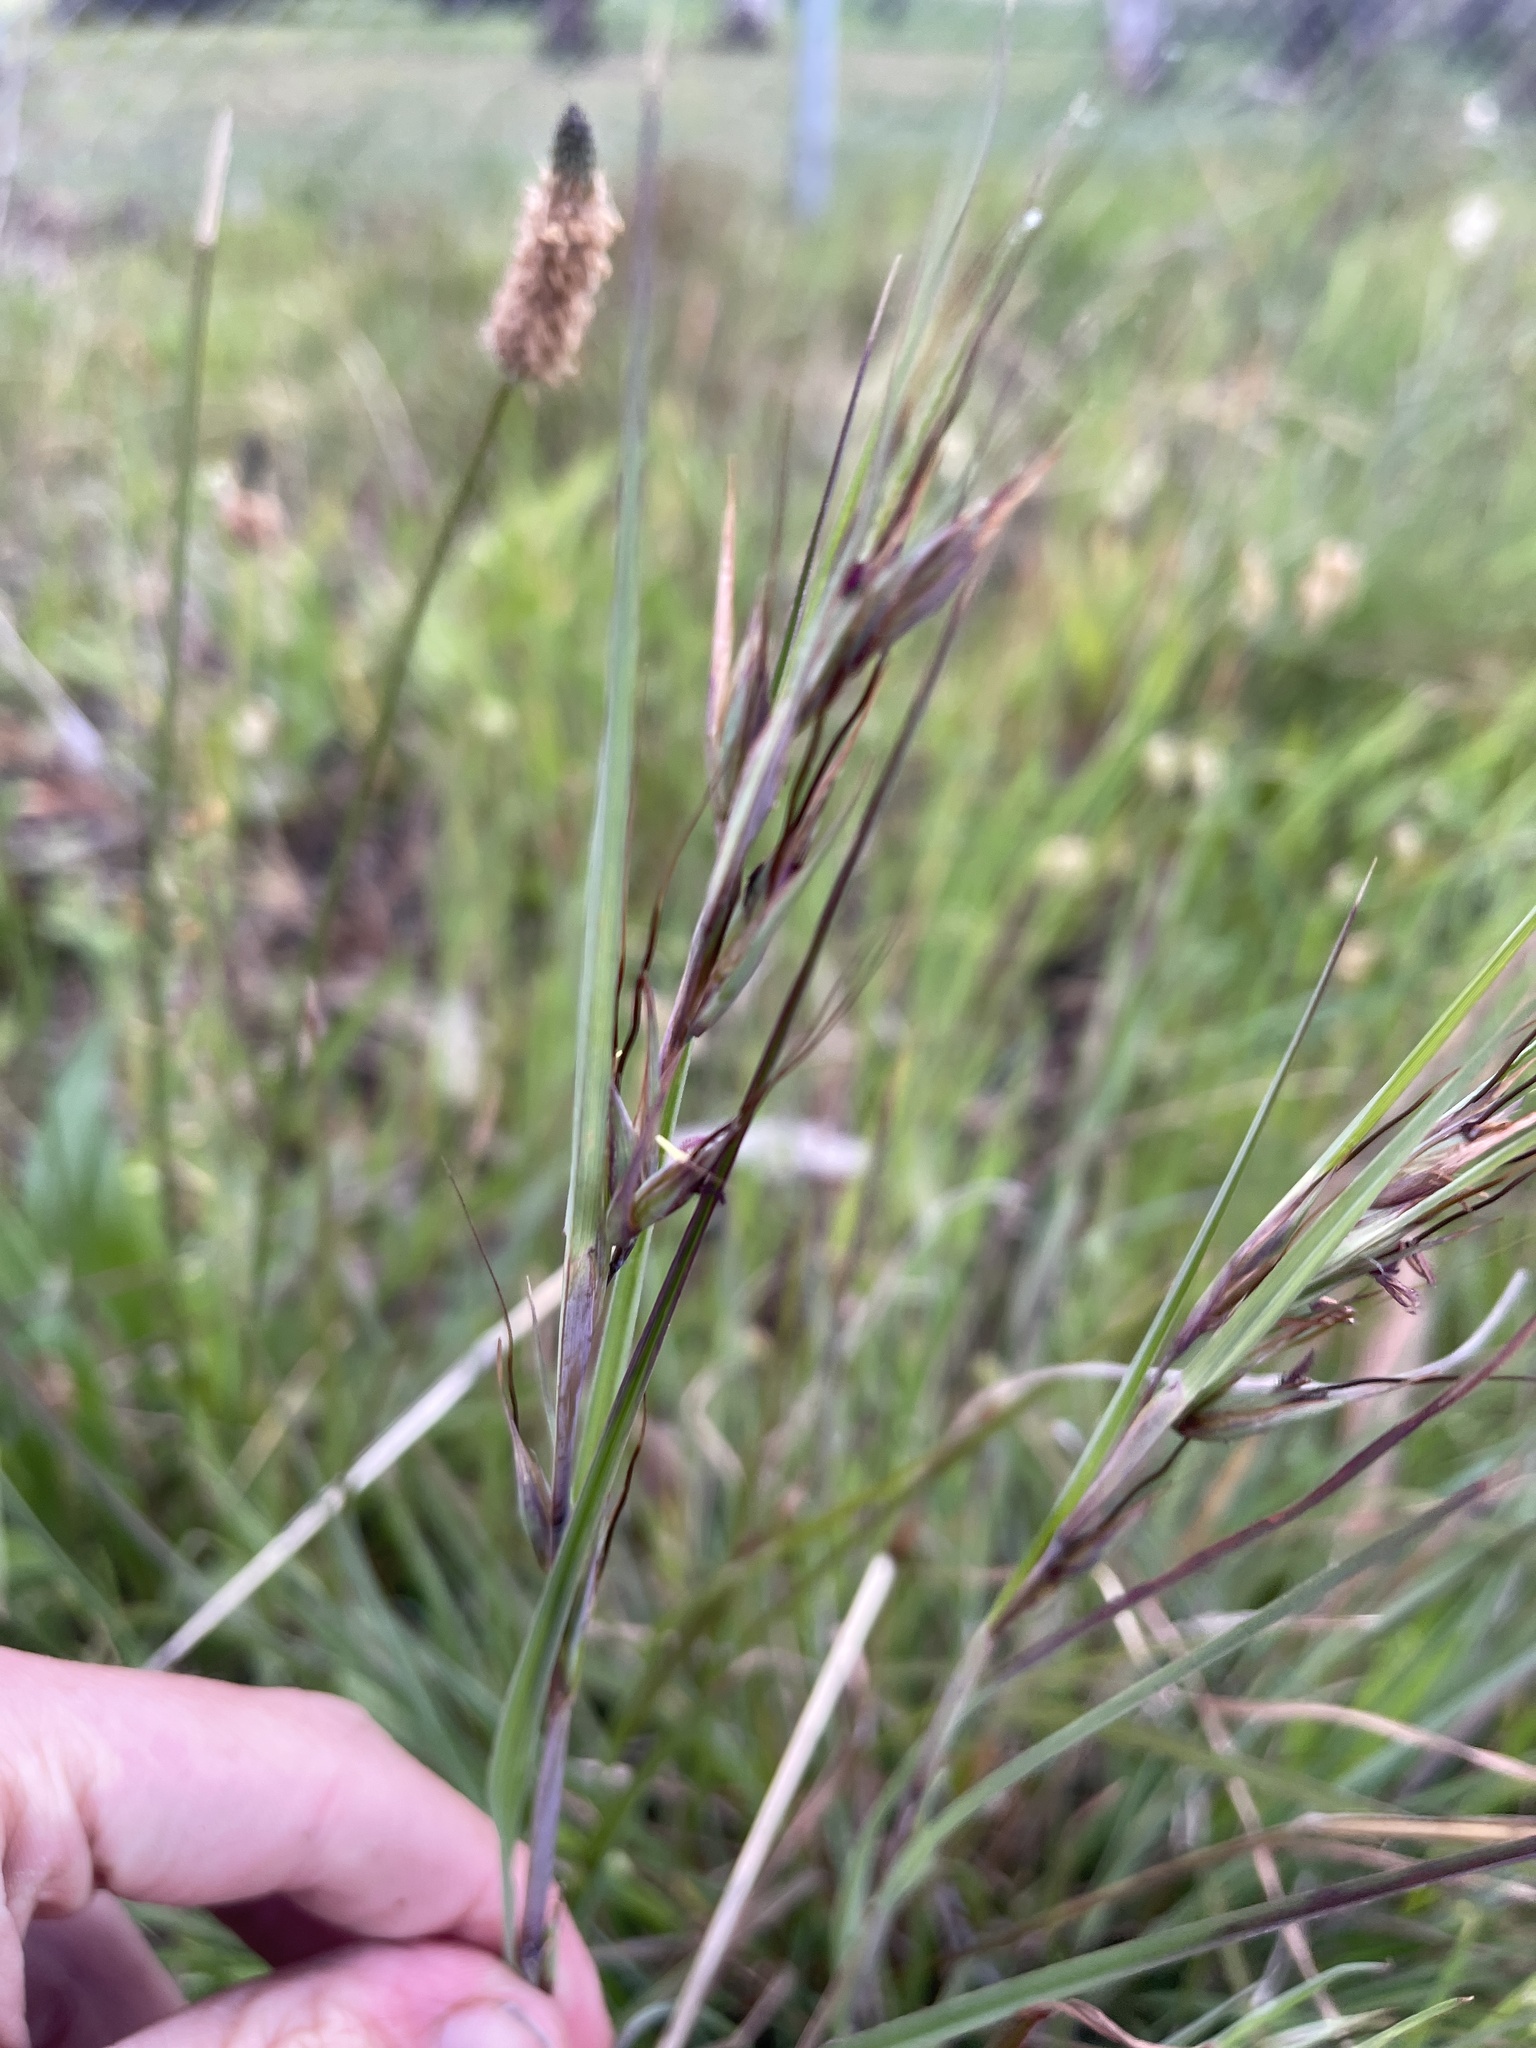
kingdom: Plantae
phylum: Tracheophyta
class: Liliopsida
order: Poales
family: Poaceae
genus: Themeda
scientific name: Themeda triandra
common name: Kangaroo grass
